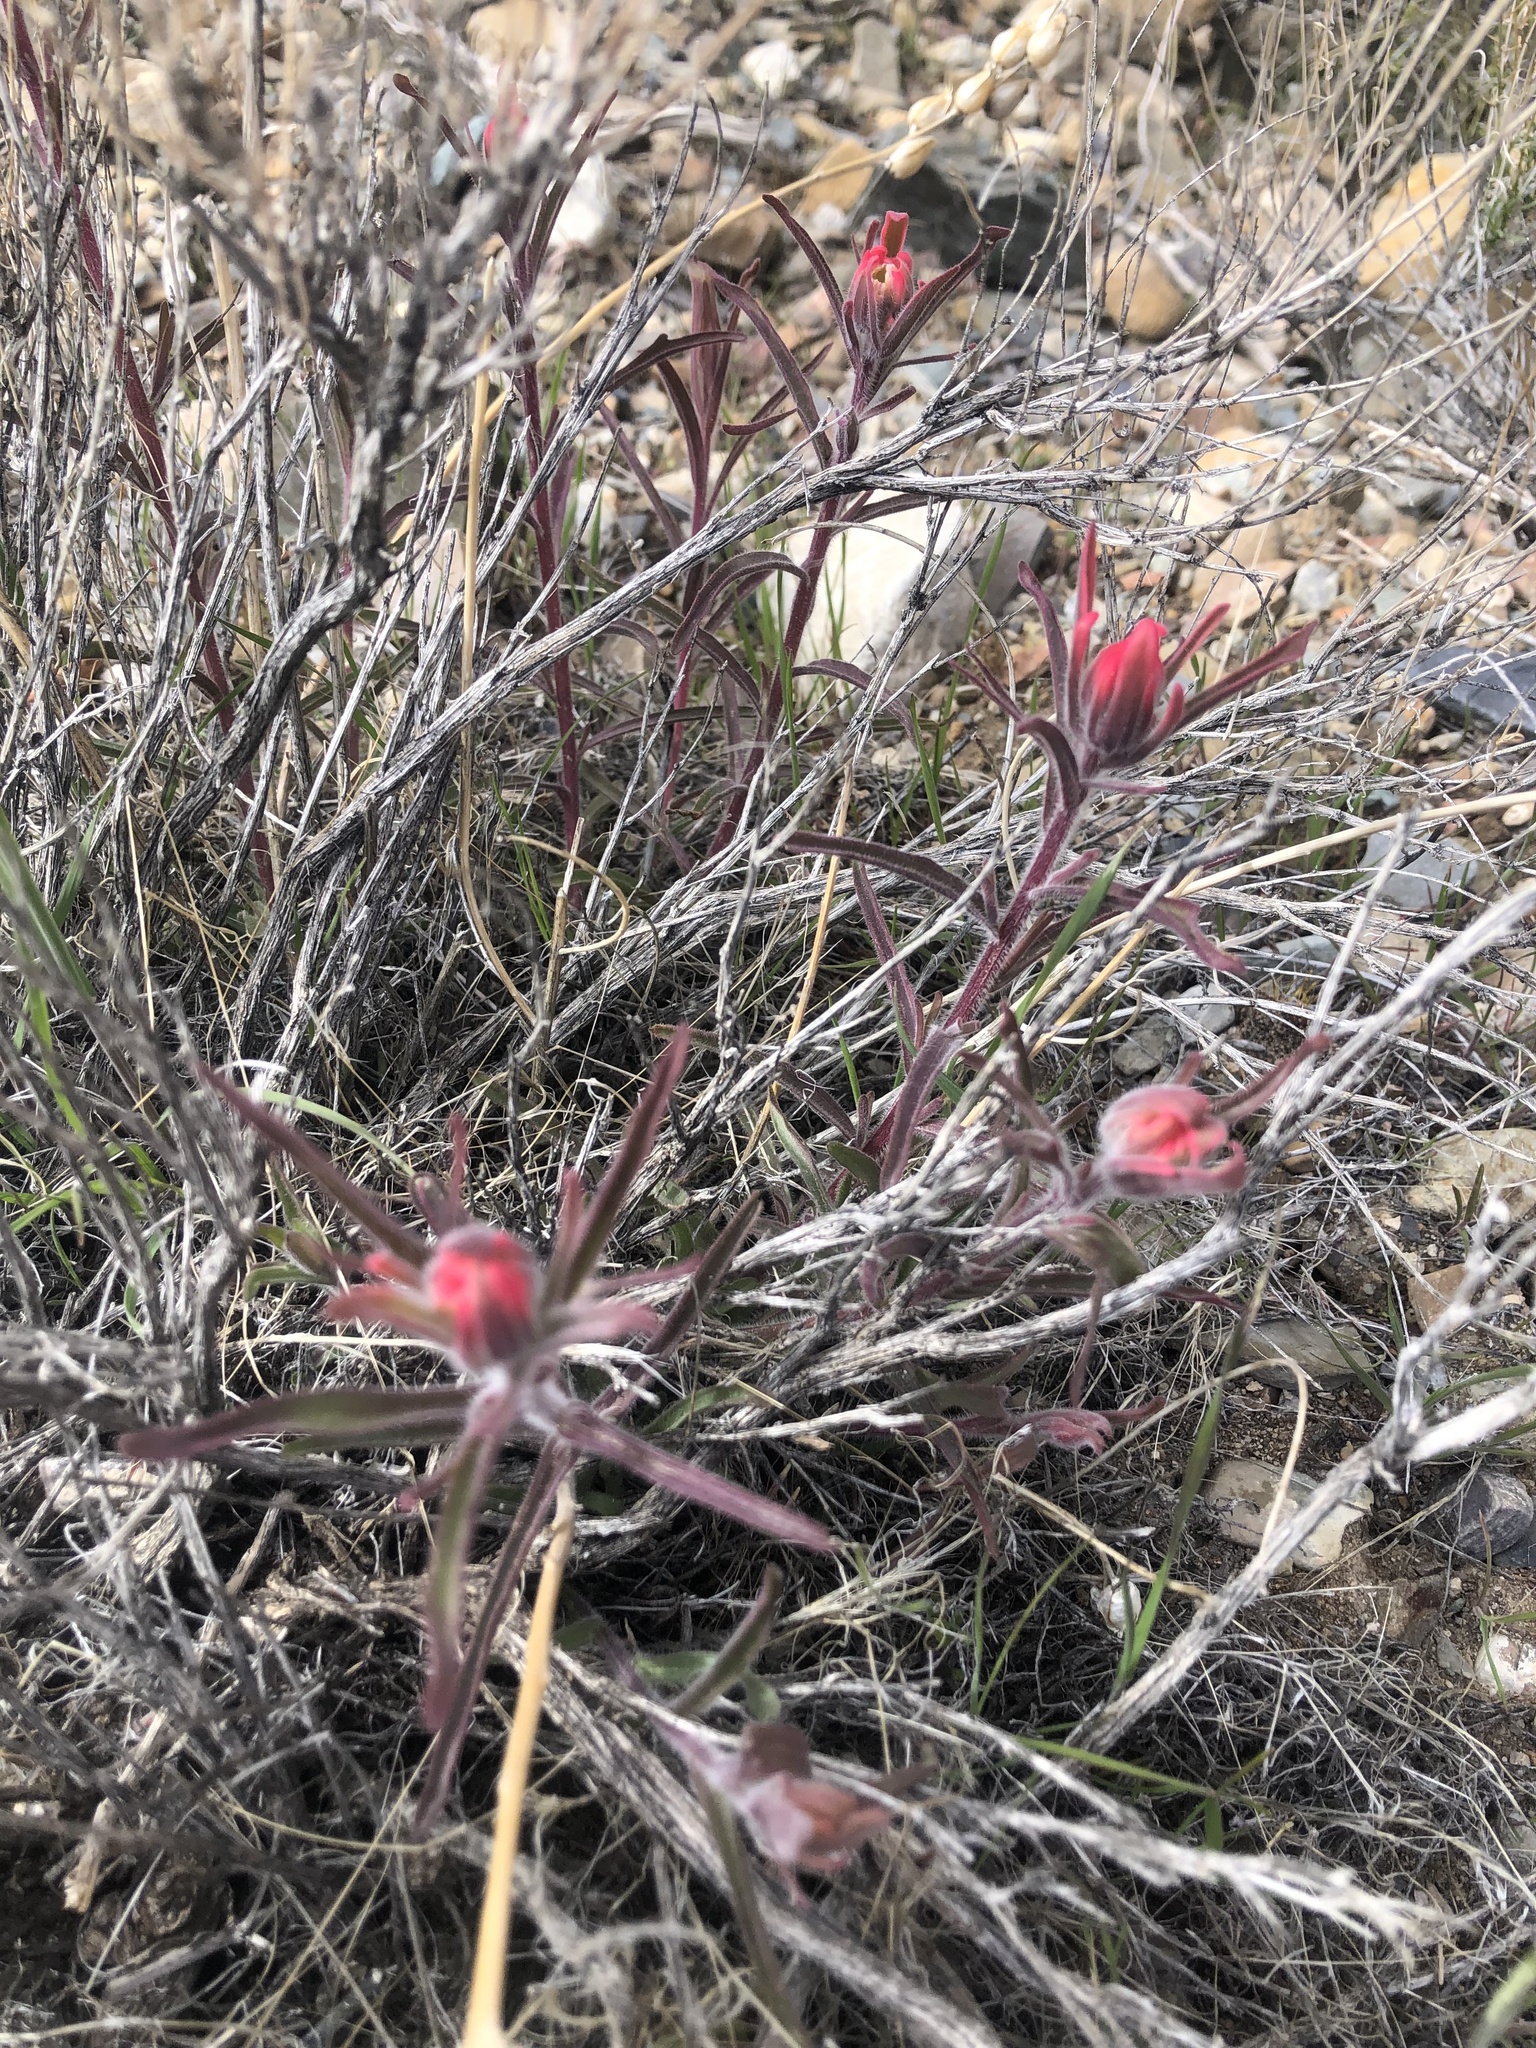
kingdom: Plantae
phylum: Tracheophyta
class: Magnoliopsida
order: Lamiales
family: Orobanchaceae
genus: Castilleja
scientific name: Castilleja chromosa
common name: Desert paintbrush
